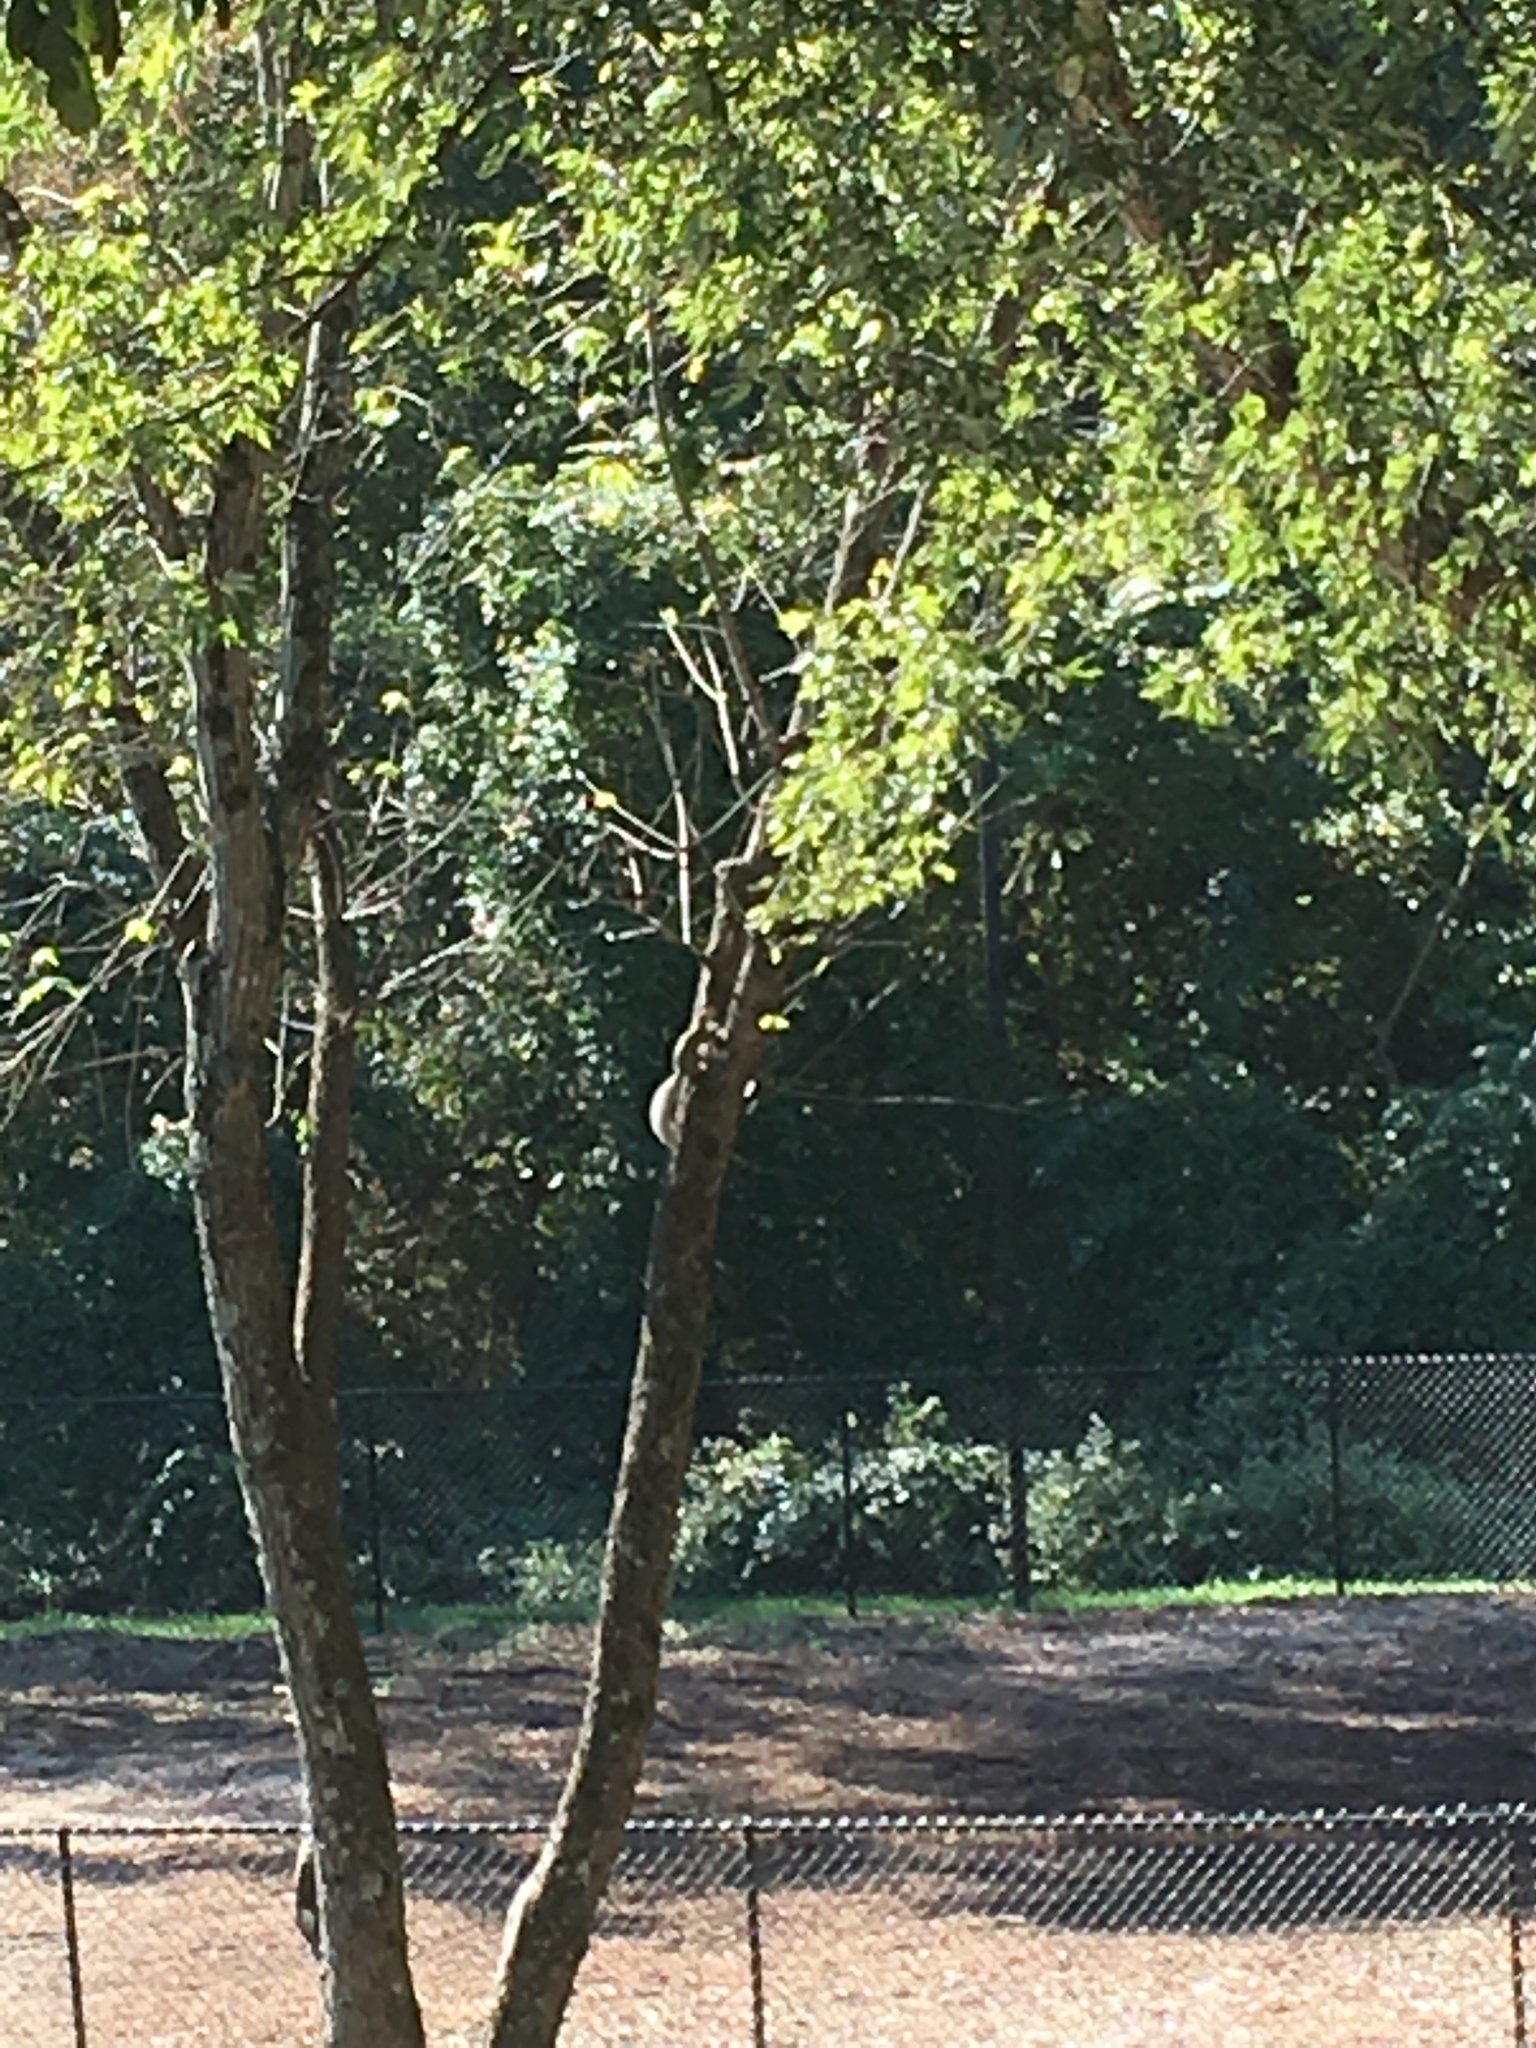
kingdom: Animalia
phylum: Chordata
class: Mammalia
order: Rodentia
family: Sciuridae
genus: Sciurus
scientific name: Sciurus carolinensis
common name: Eastern gray squirrel
